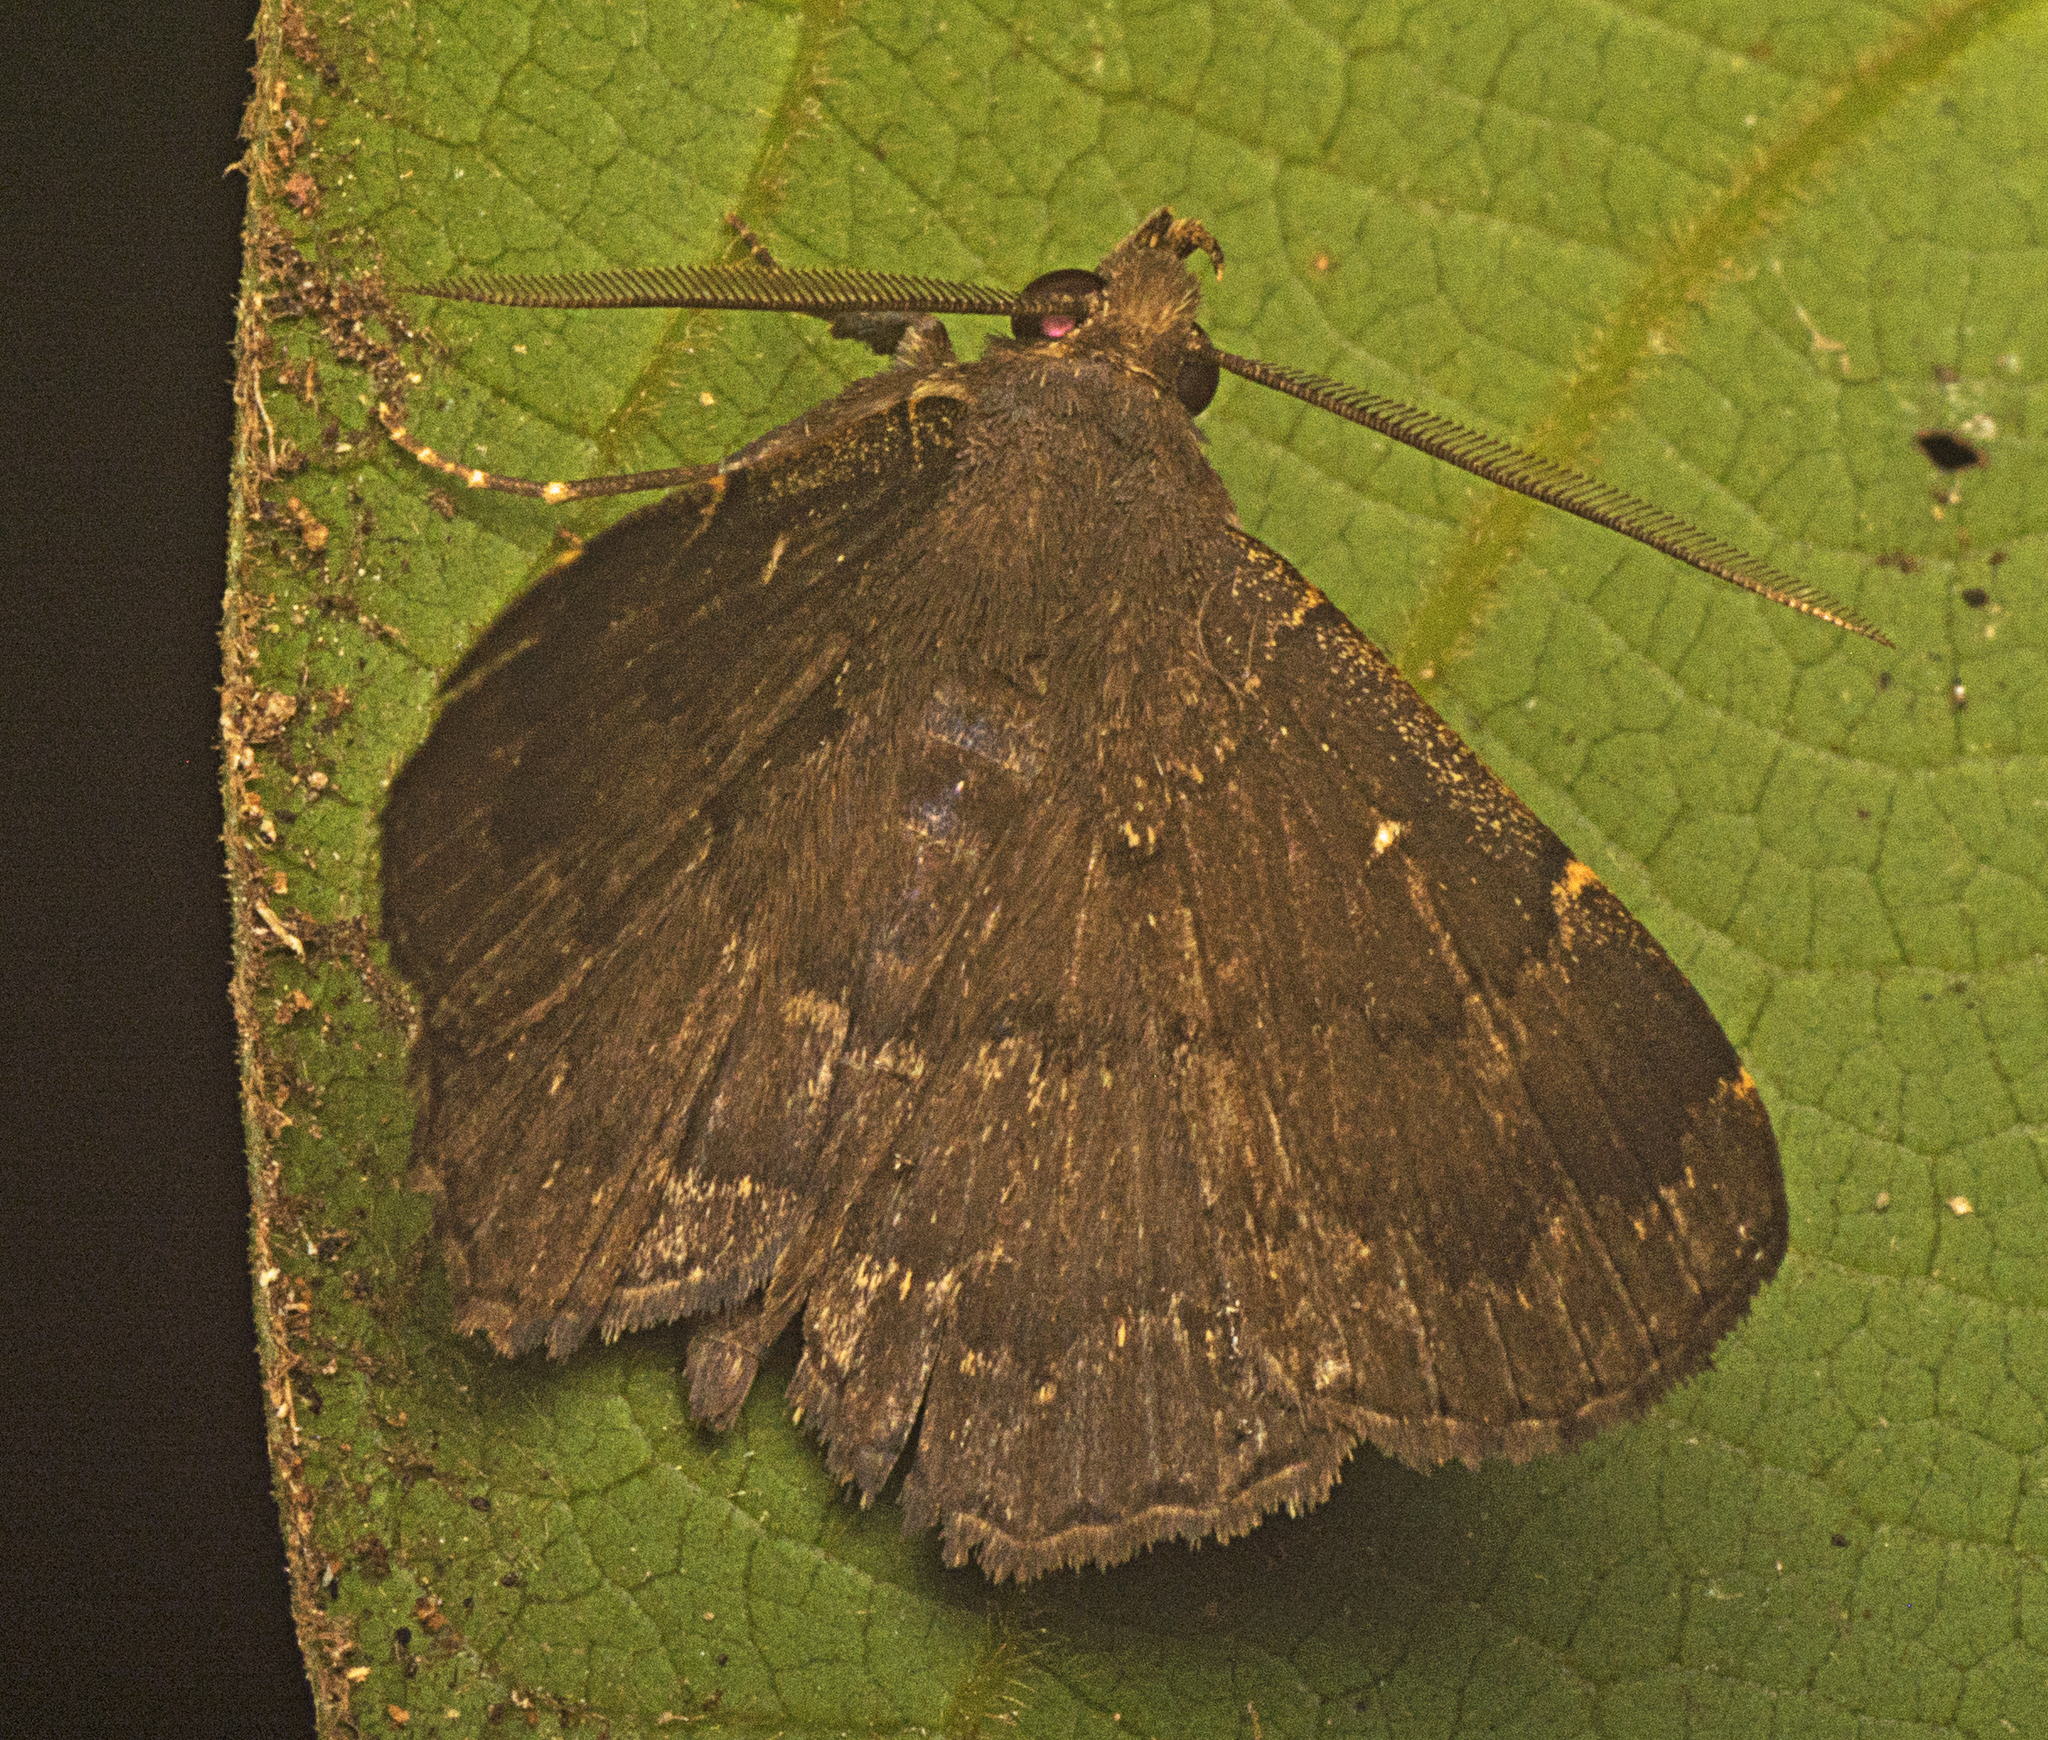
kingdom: Animalia
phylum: Arthropoda
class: Insecta
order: Lepidoptera
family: Erebidae
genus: Bocana
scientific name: Bocana manifestalis
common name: Moth
